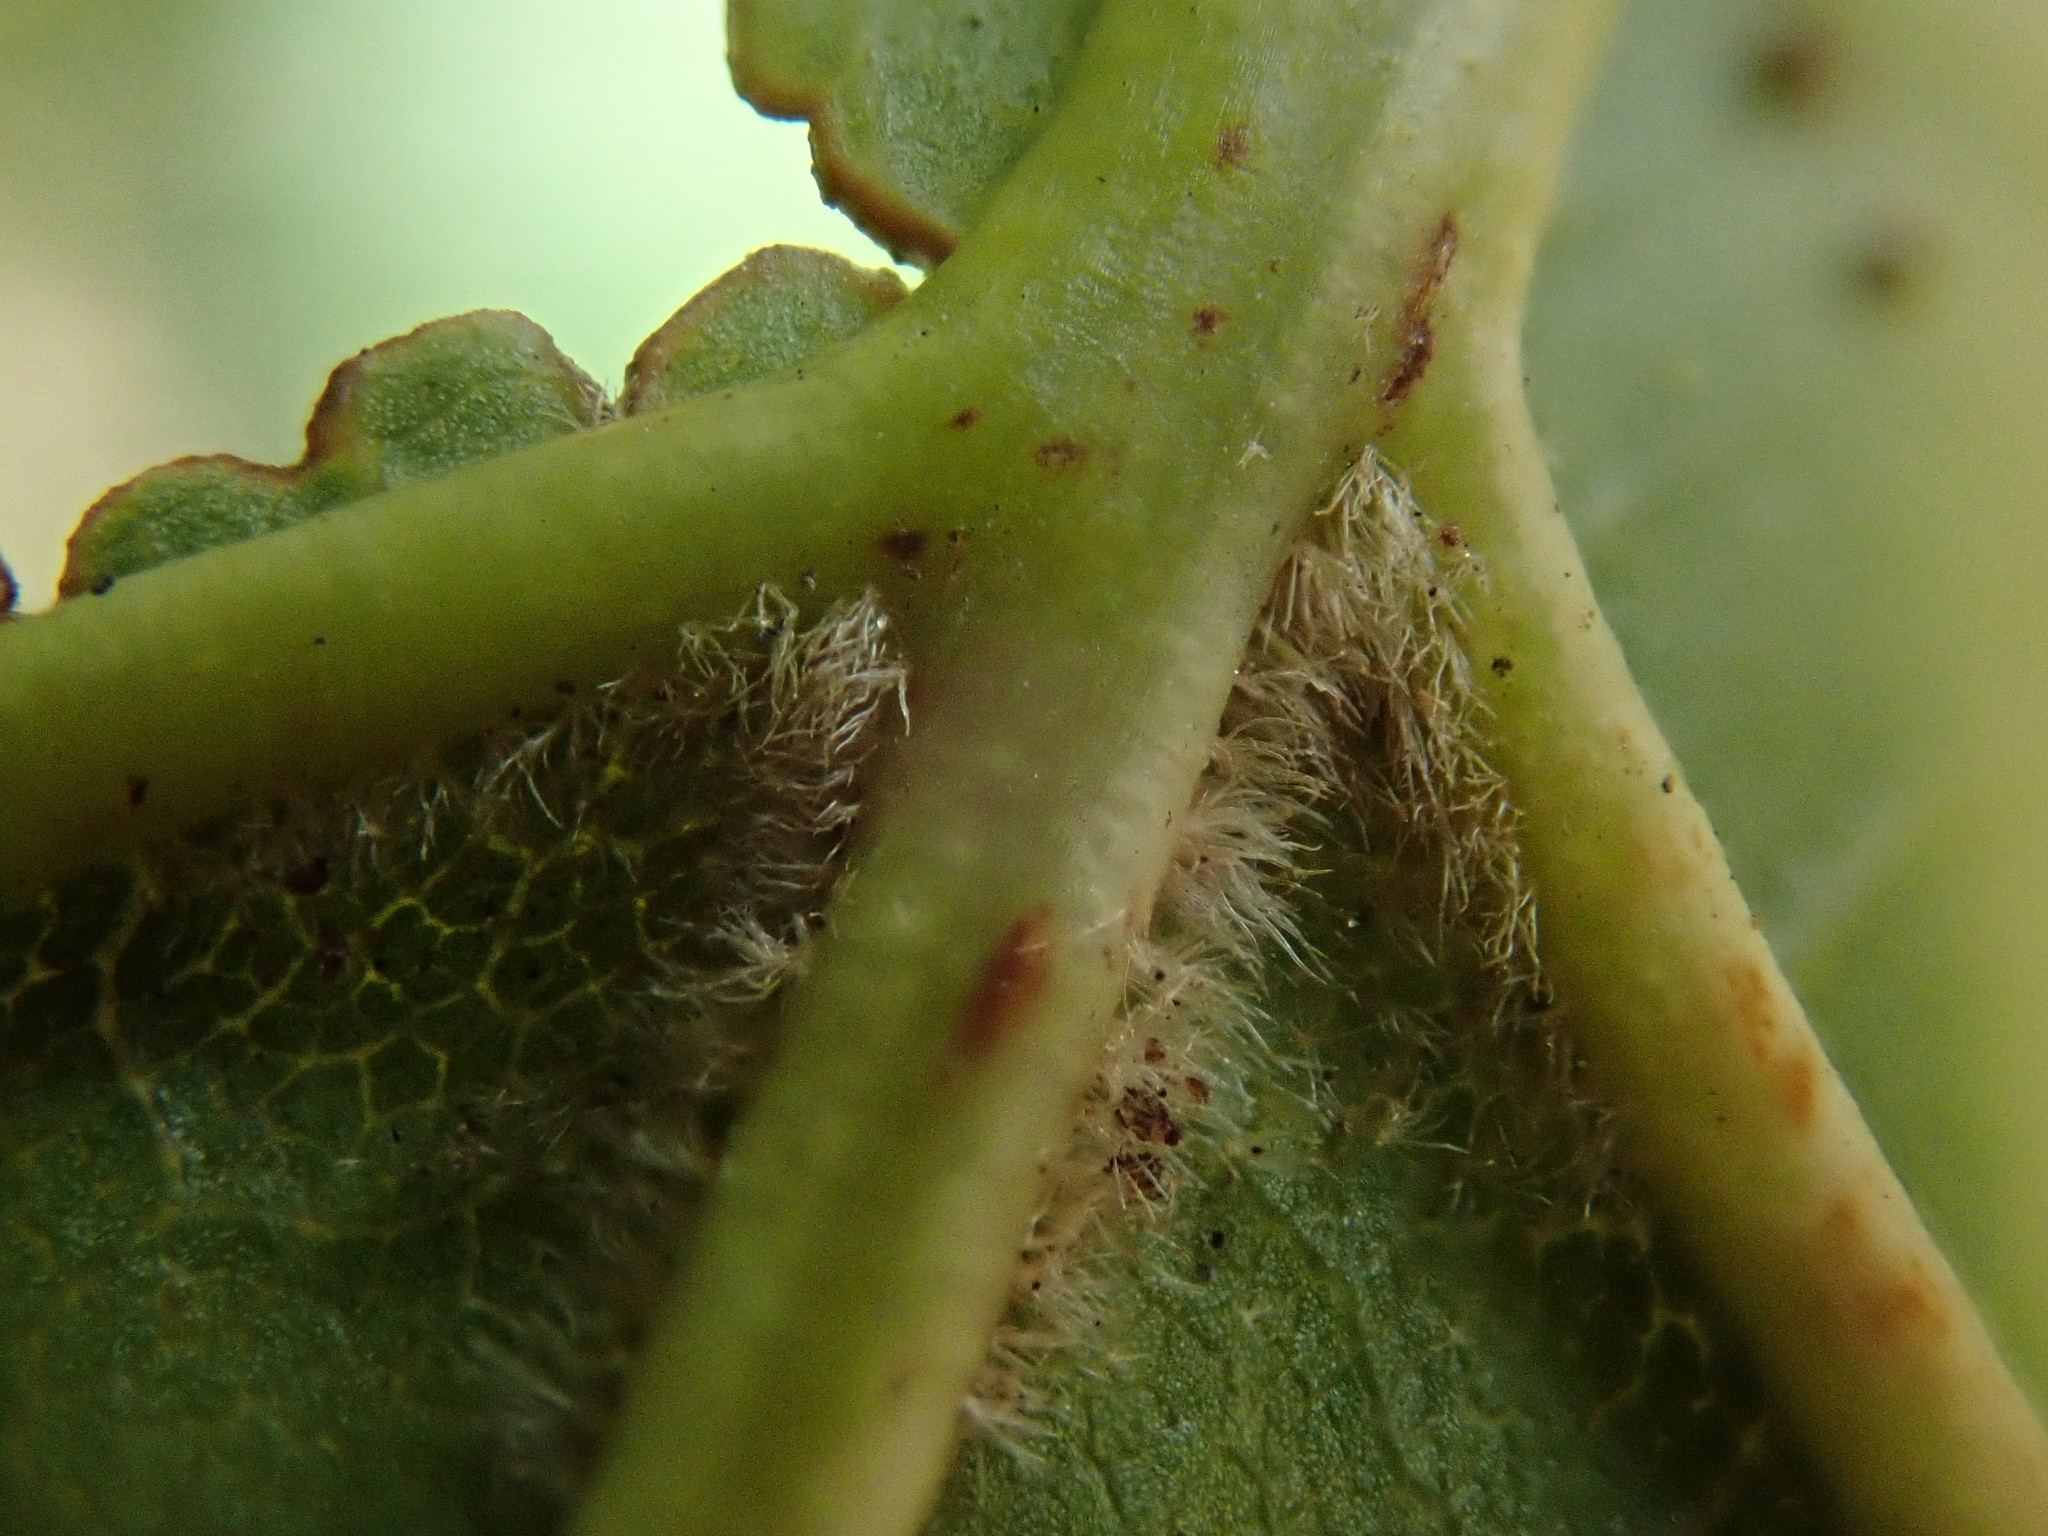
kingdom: Plantae
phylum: Tracheophyta
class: Magnoliopsida
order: Fagales
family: Fagaceae
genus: Quercus
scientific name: Quercus velutina
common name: Black oak
